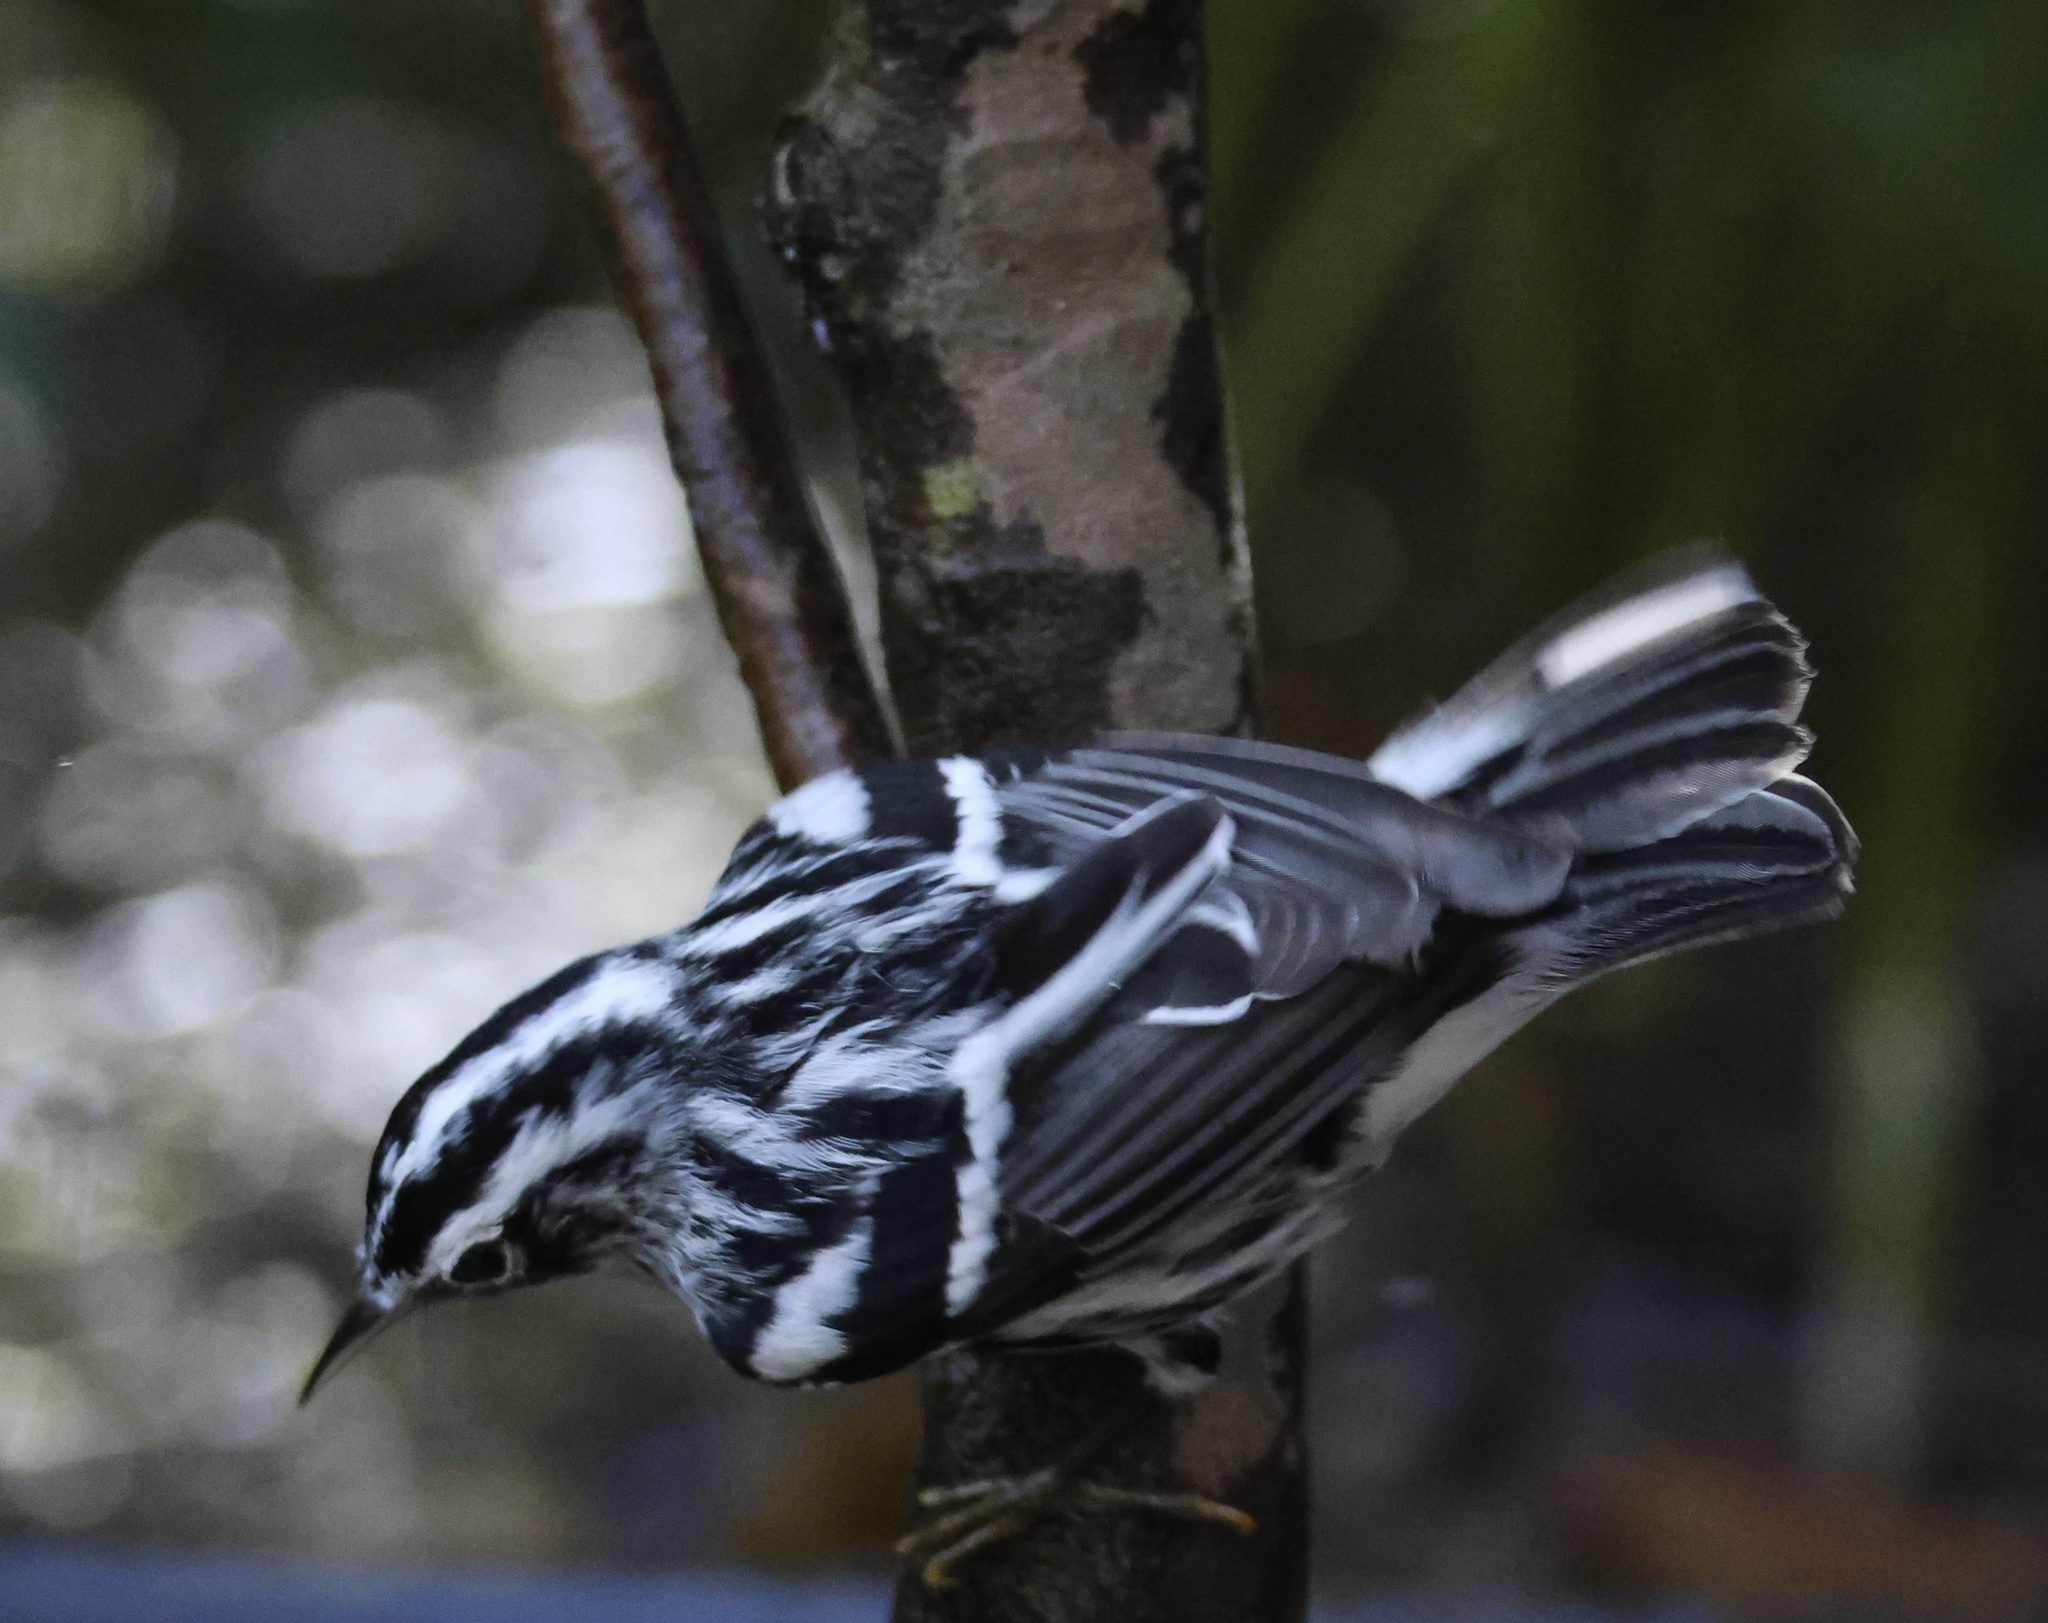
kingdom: Animalia
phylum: Chordata
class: Aves
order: Passeriformes
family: Parulidae
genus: Mniotilta
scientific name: Mniotilta varia
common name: Black-and-white warbler
